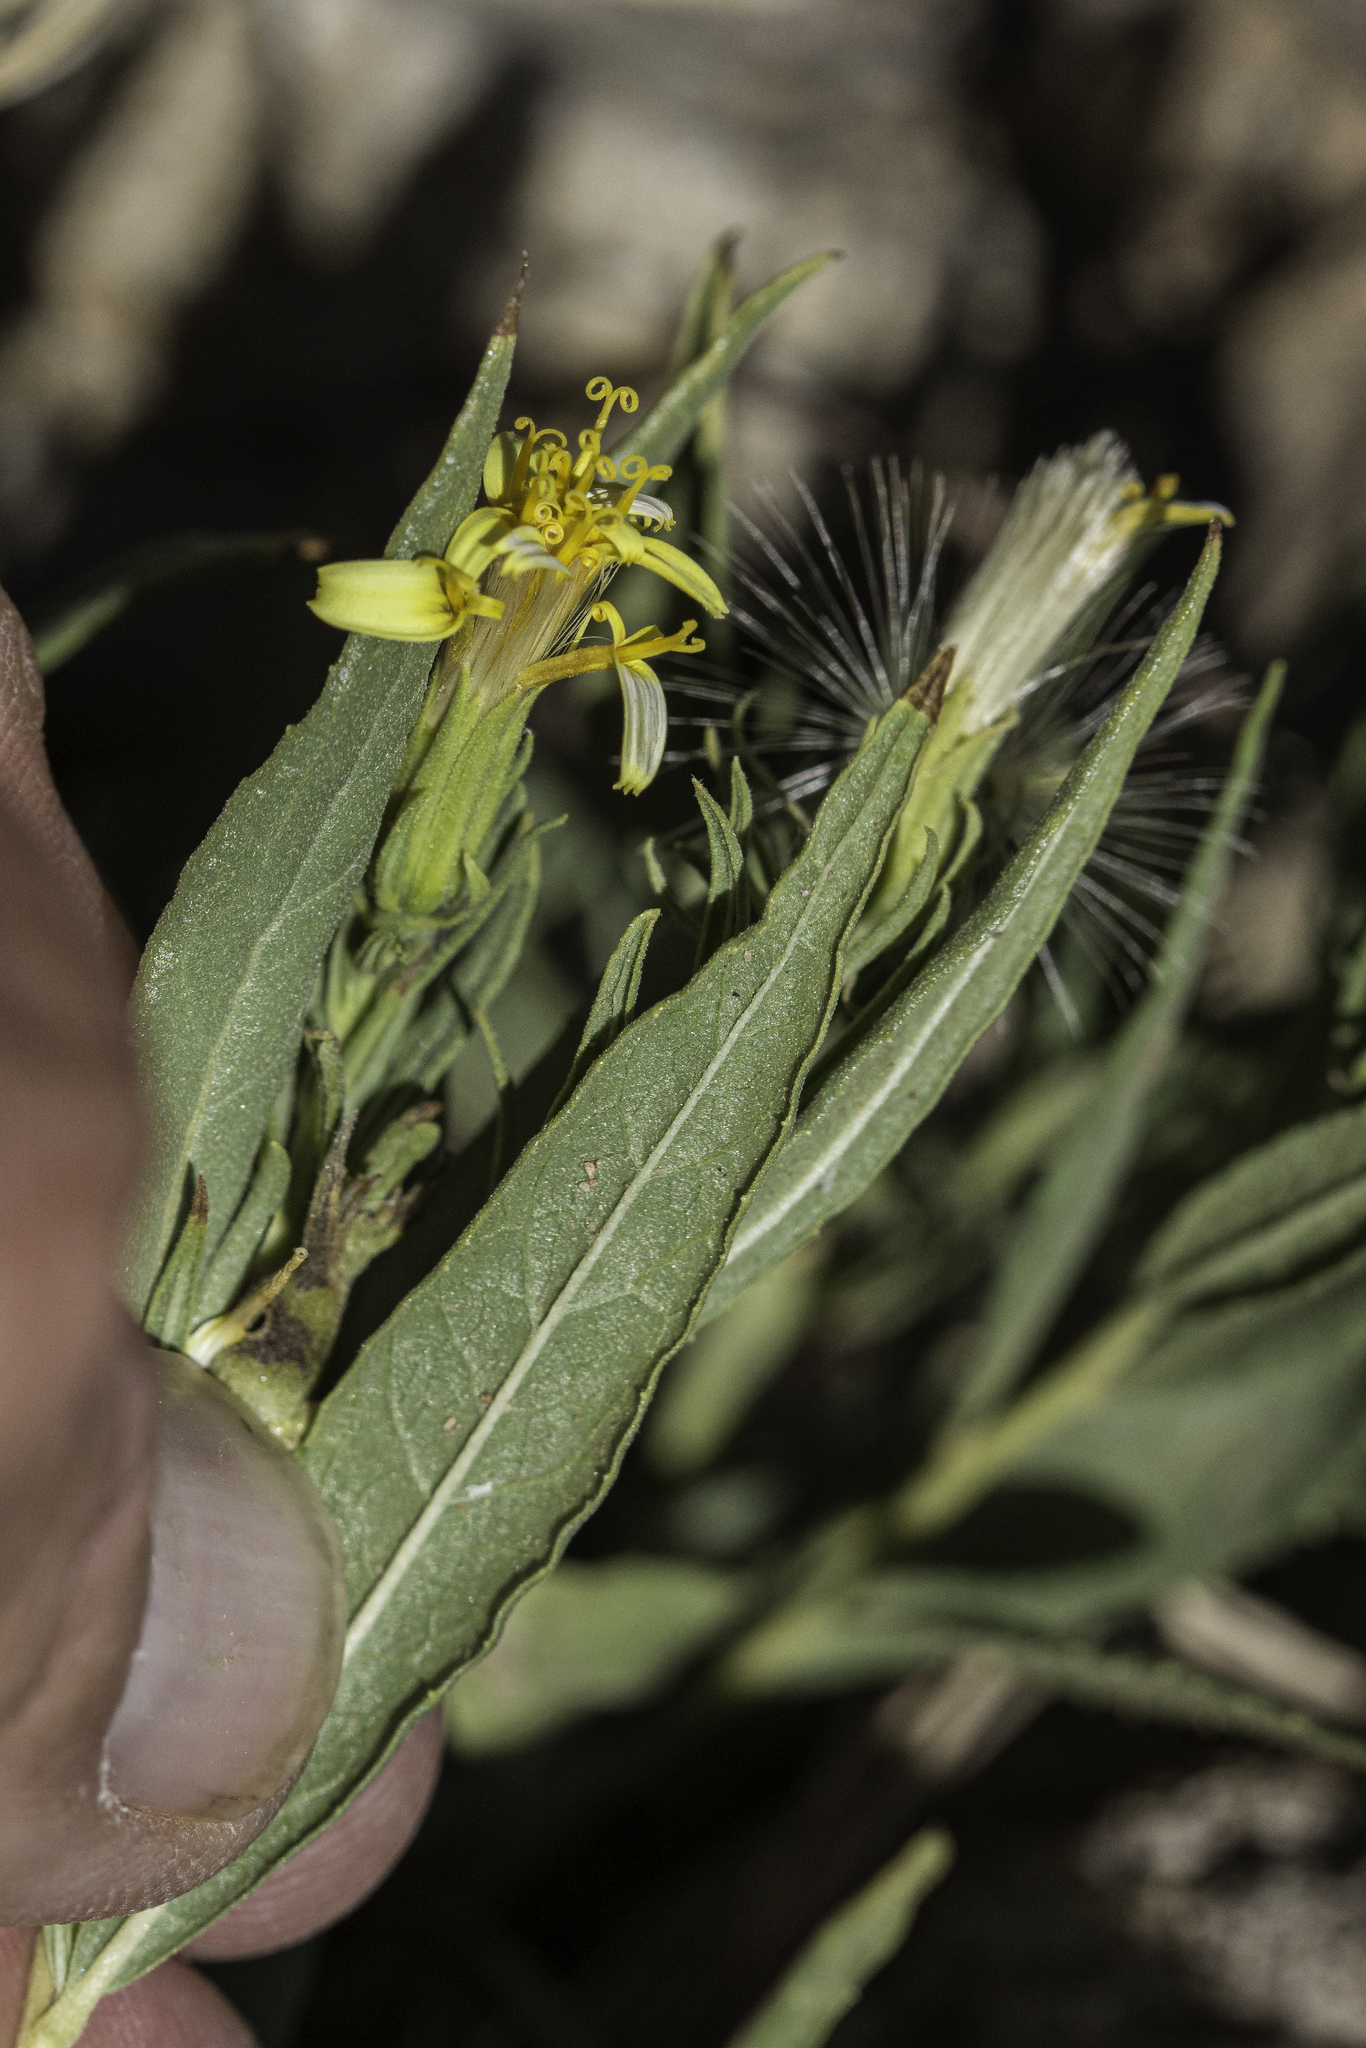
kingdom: Plantae
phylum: Tracheophyta
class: Magnoliopsida
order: Asterales
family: Asteraceae
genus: Trixis
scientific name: Trixis californica
